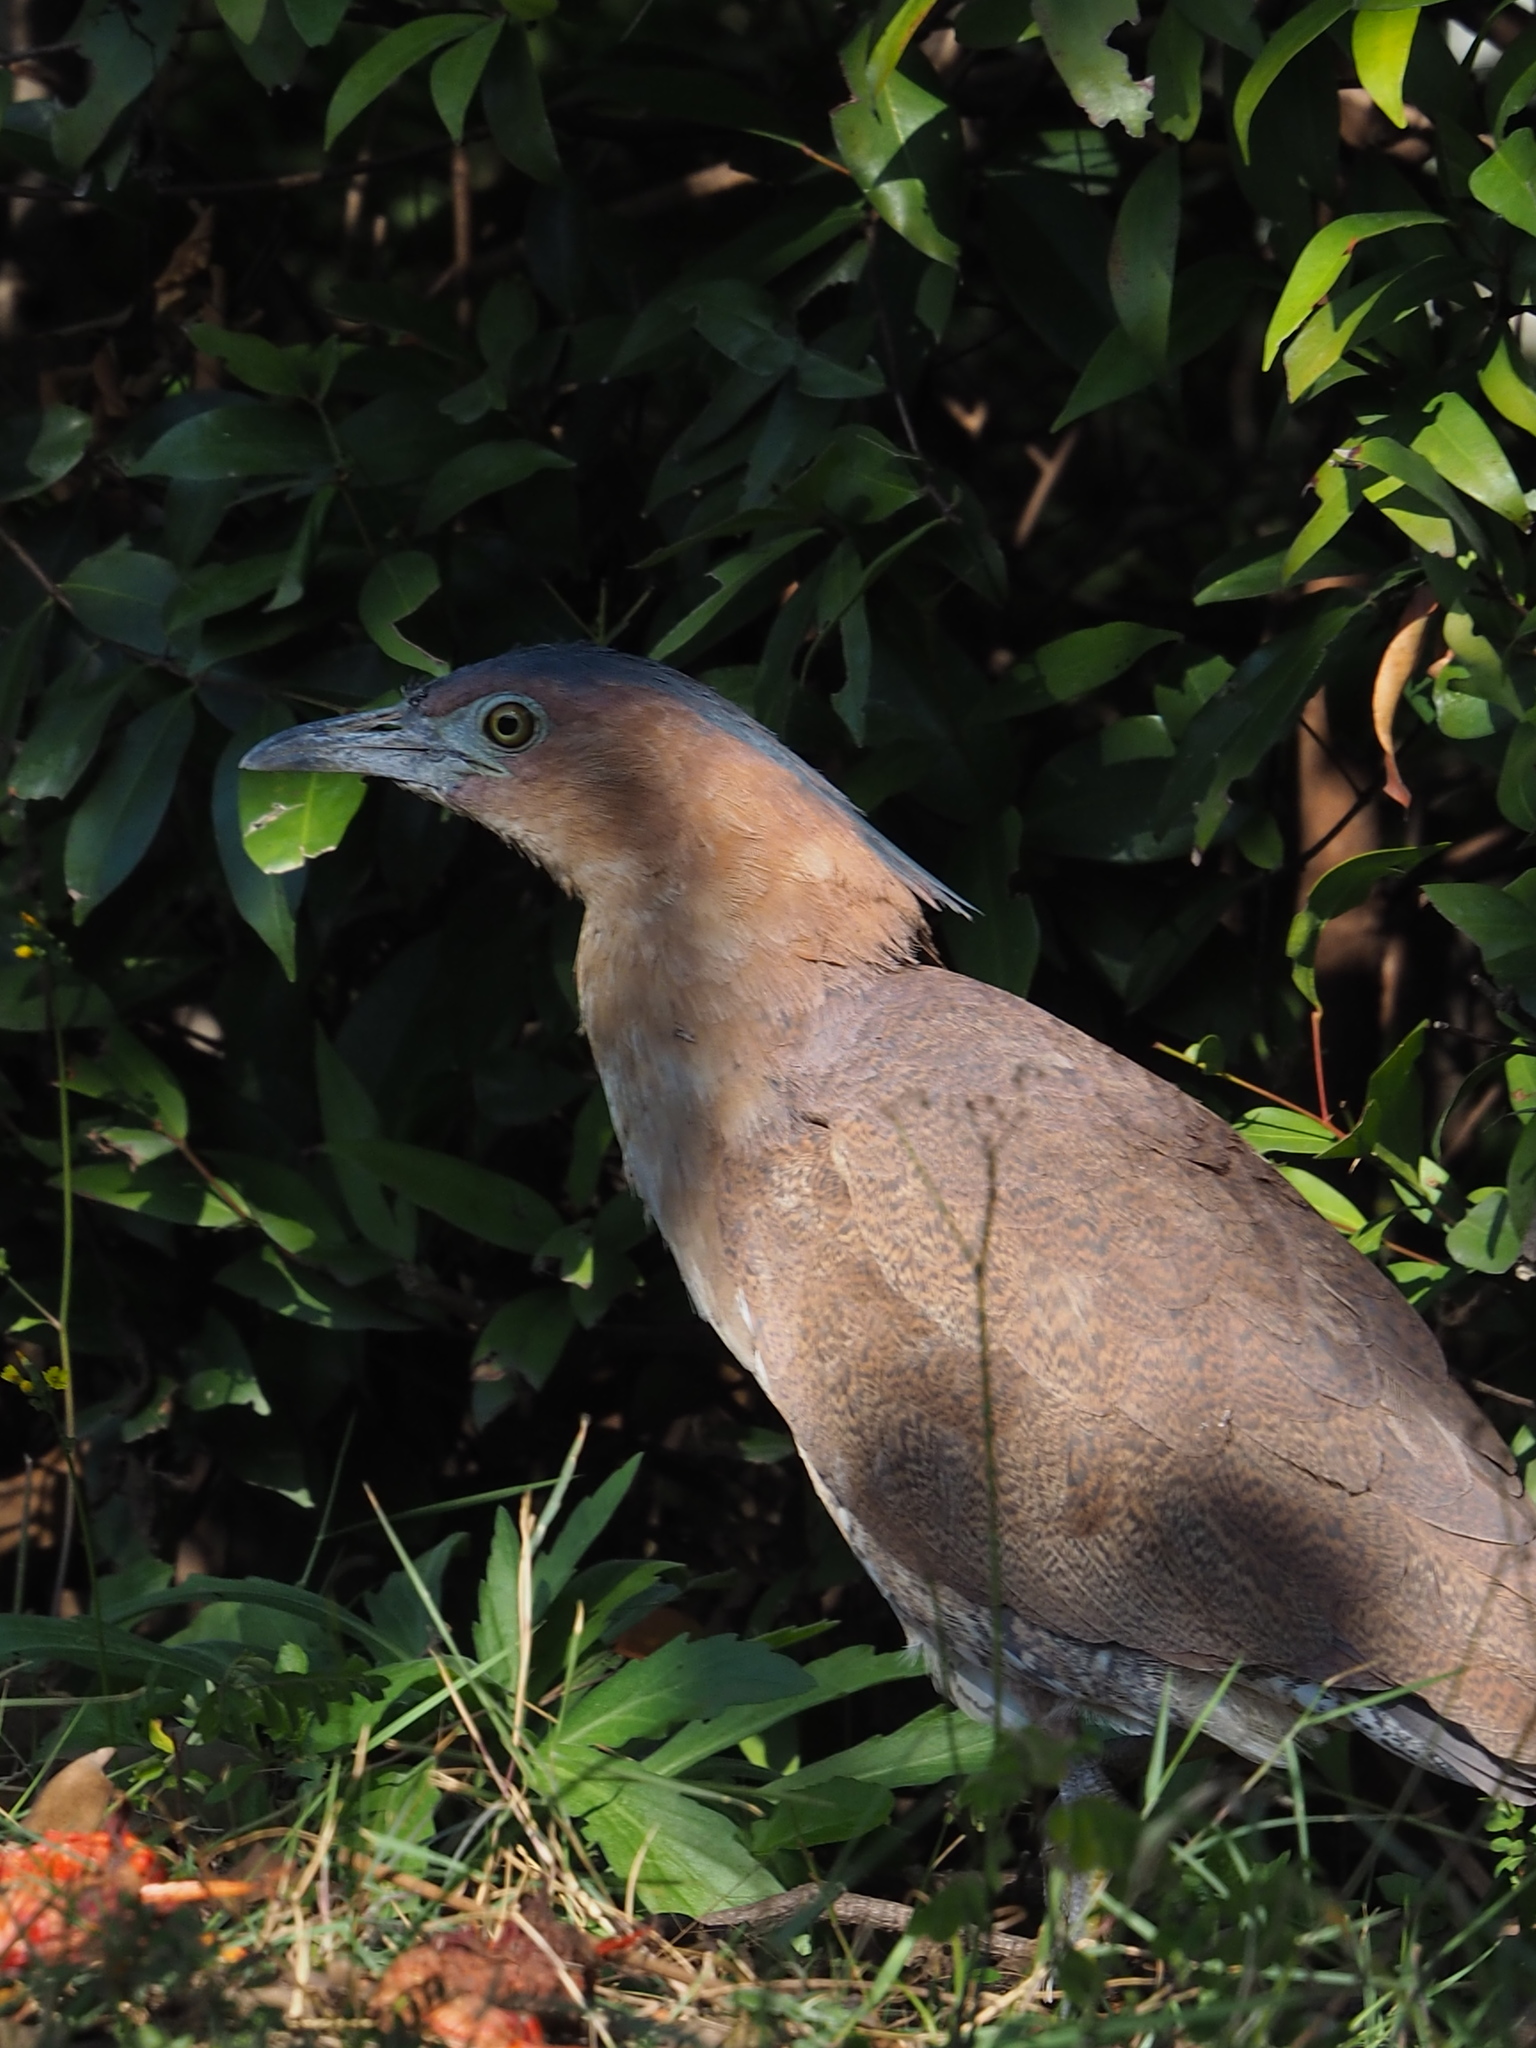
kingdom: Animalia
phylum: Chordata
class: Aves
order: Pelecaniformes
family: Ardeidae
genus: Gorsachius
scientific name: Gorsachius melanolophus
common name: Malayan night heron
